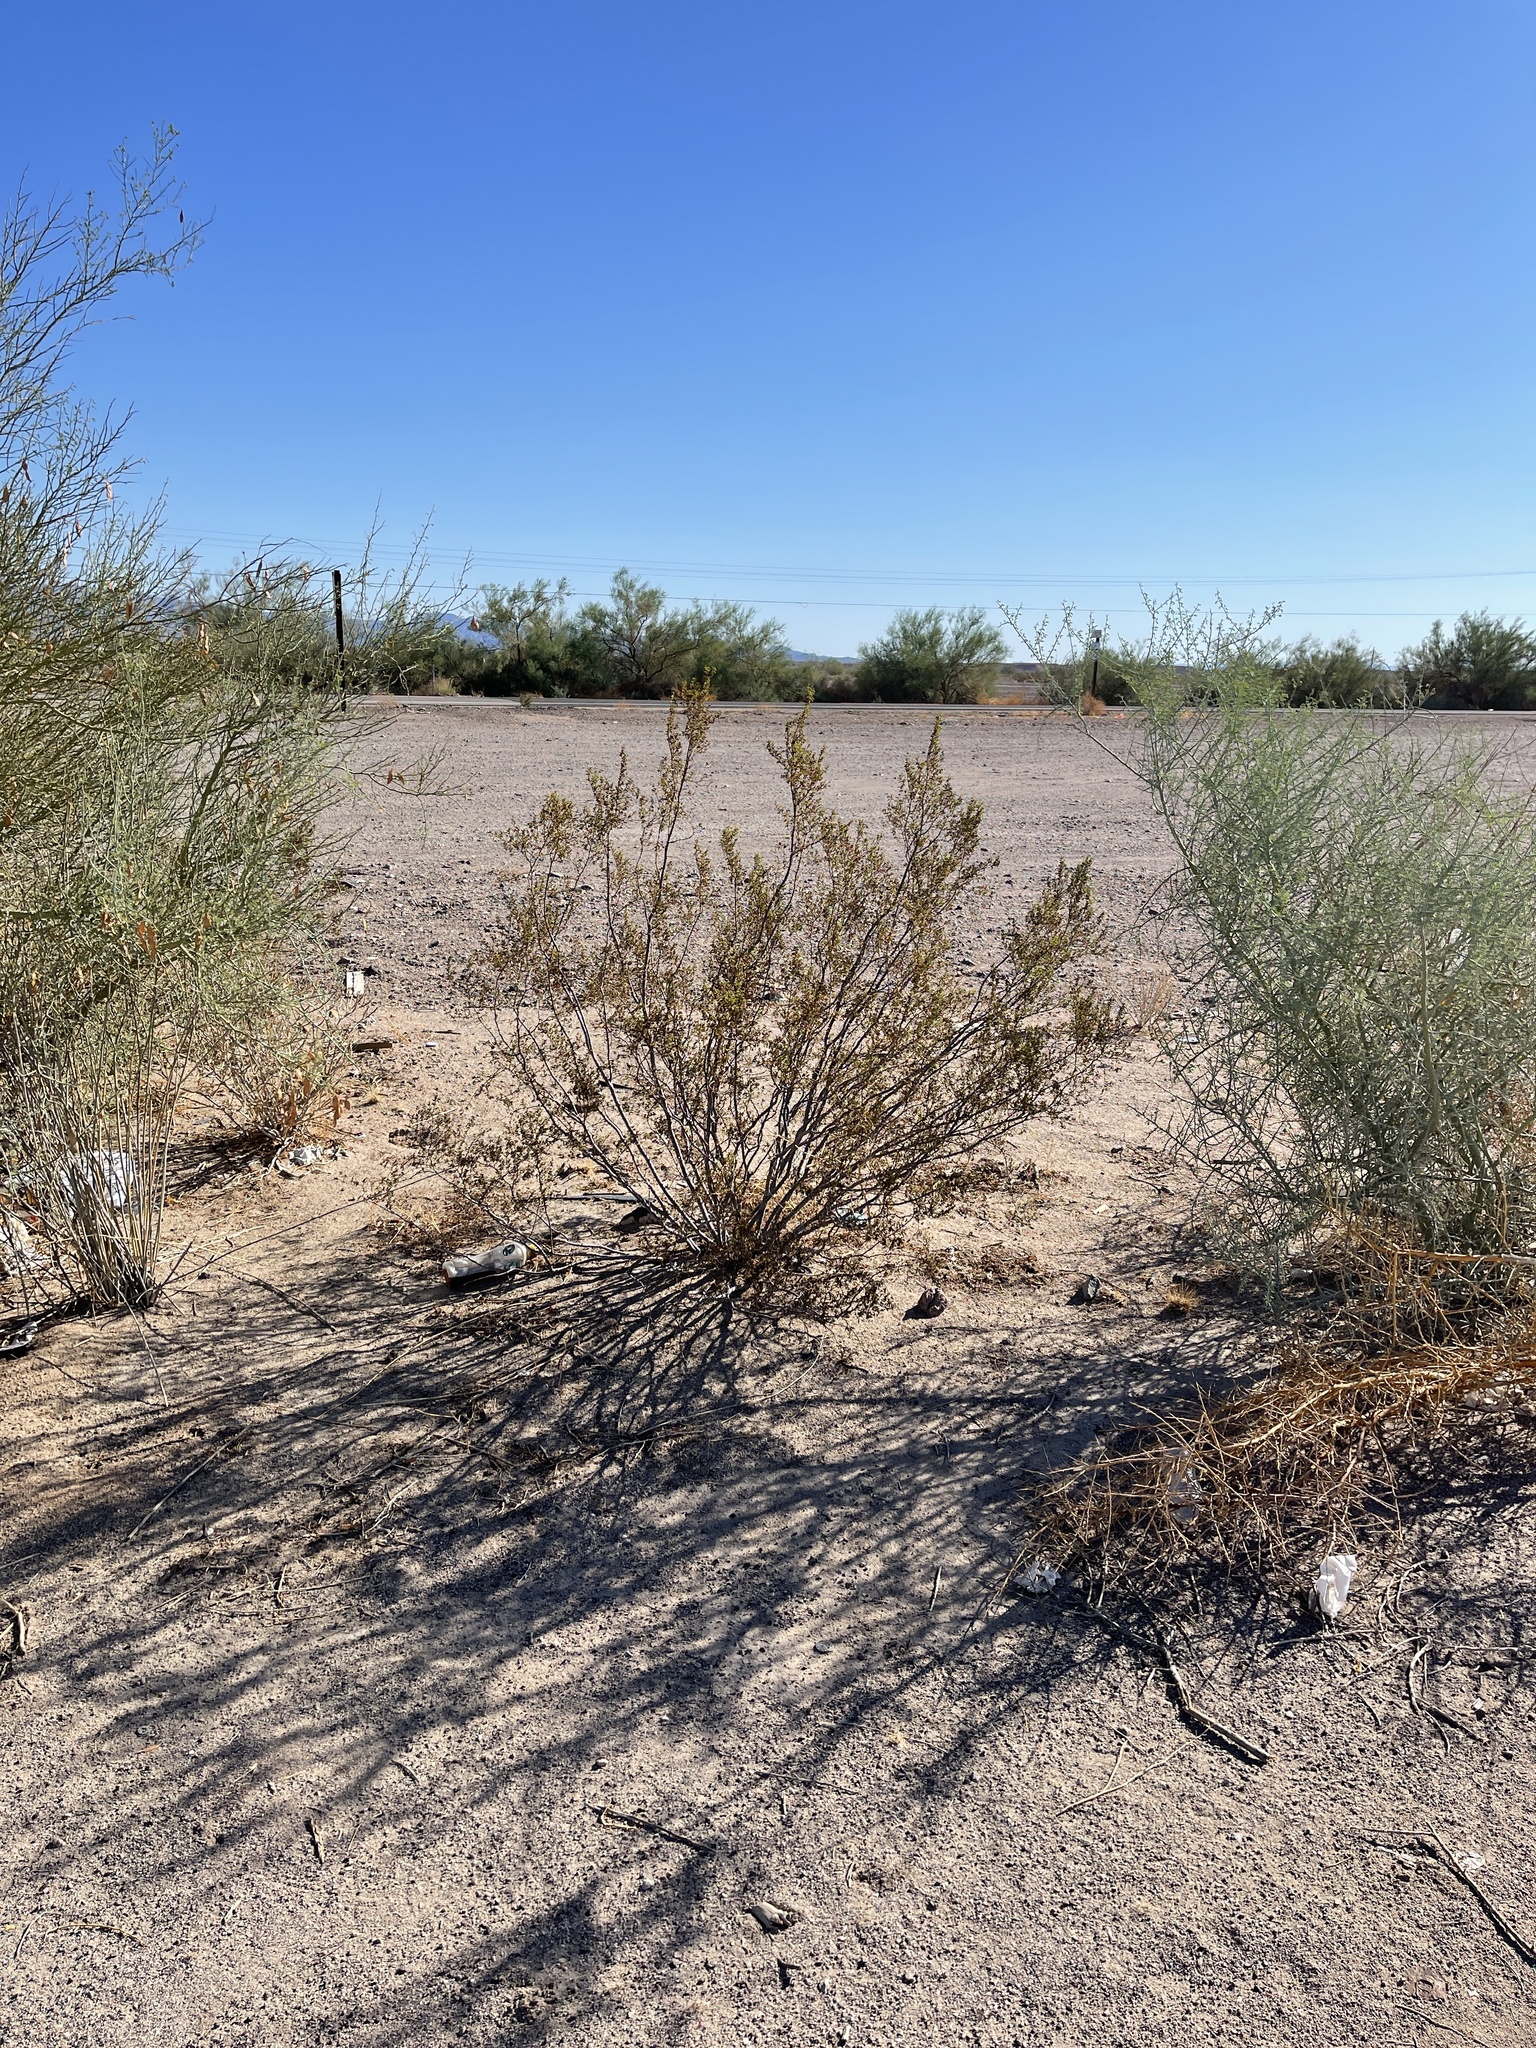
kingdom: Plantae
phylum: Tracheophyta
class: Magnoliopsida
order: Zygophyllales
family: Zygophyllaceae
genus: Larrea
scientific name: Larrea tridentata
